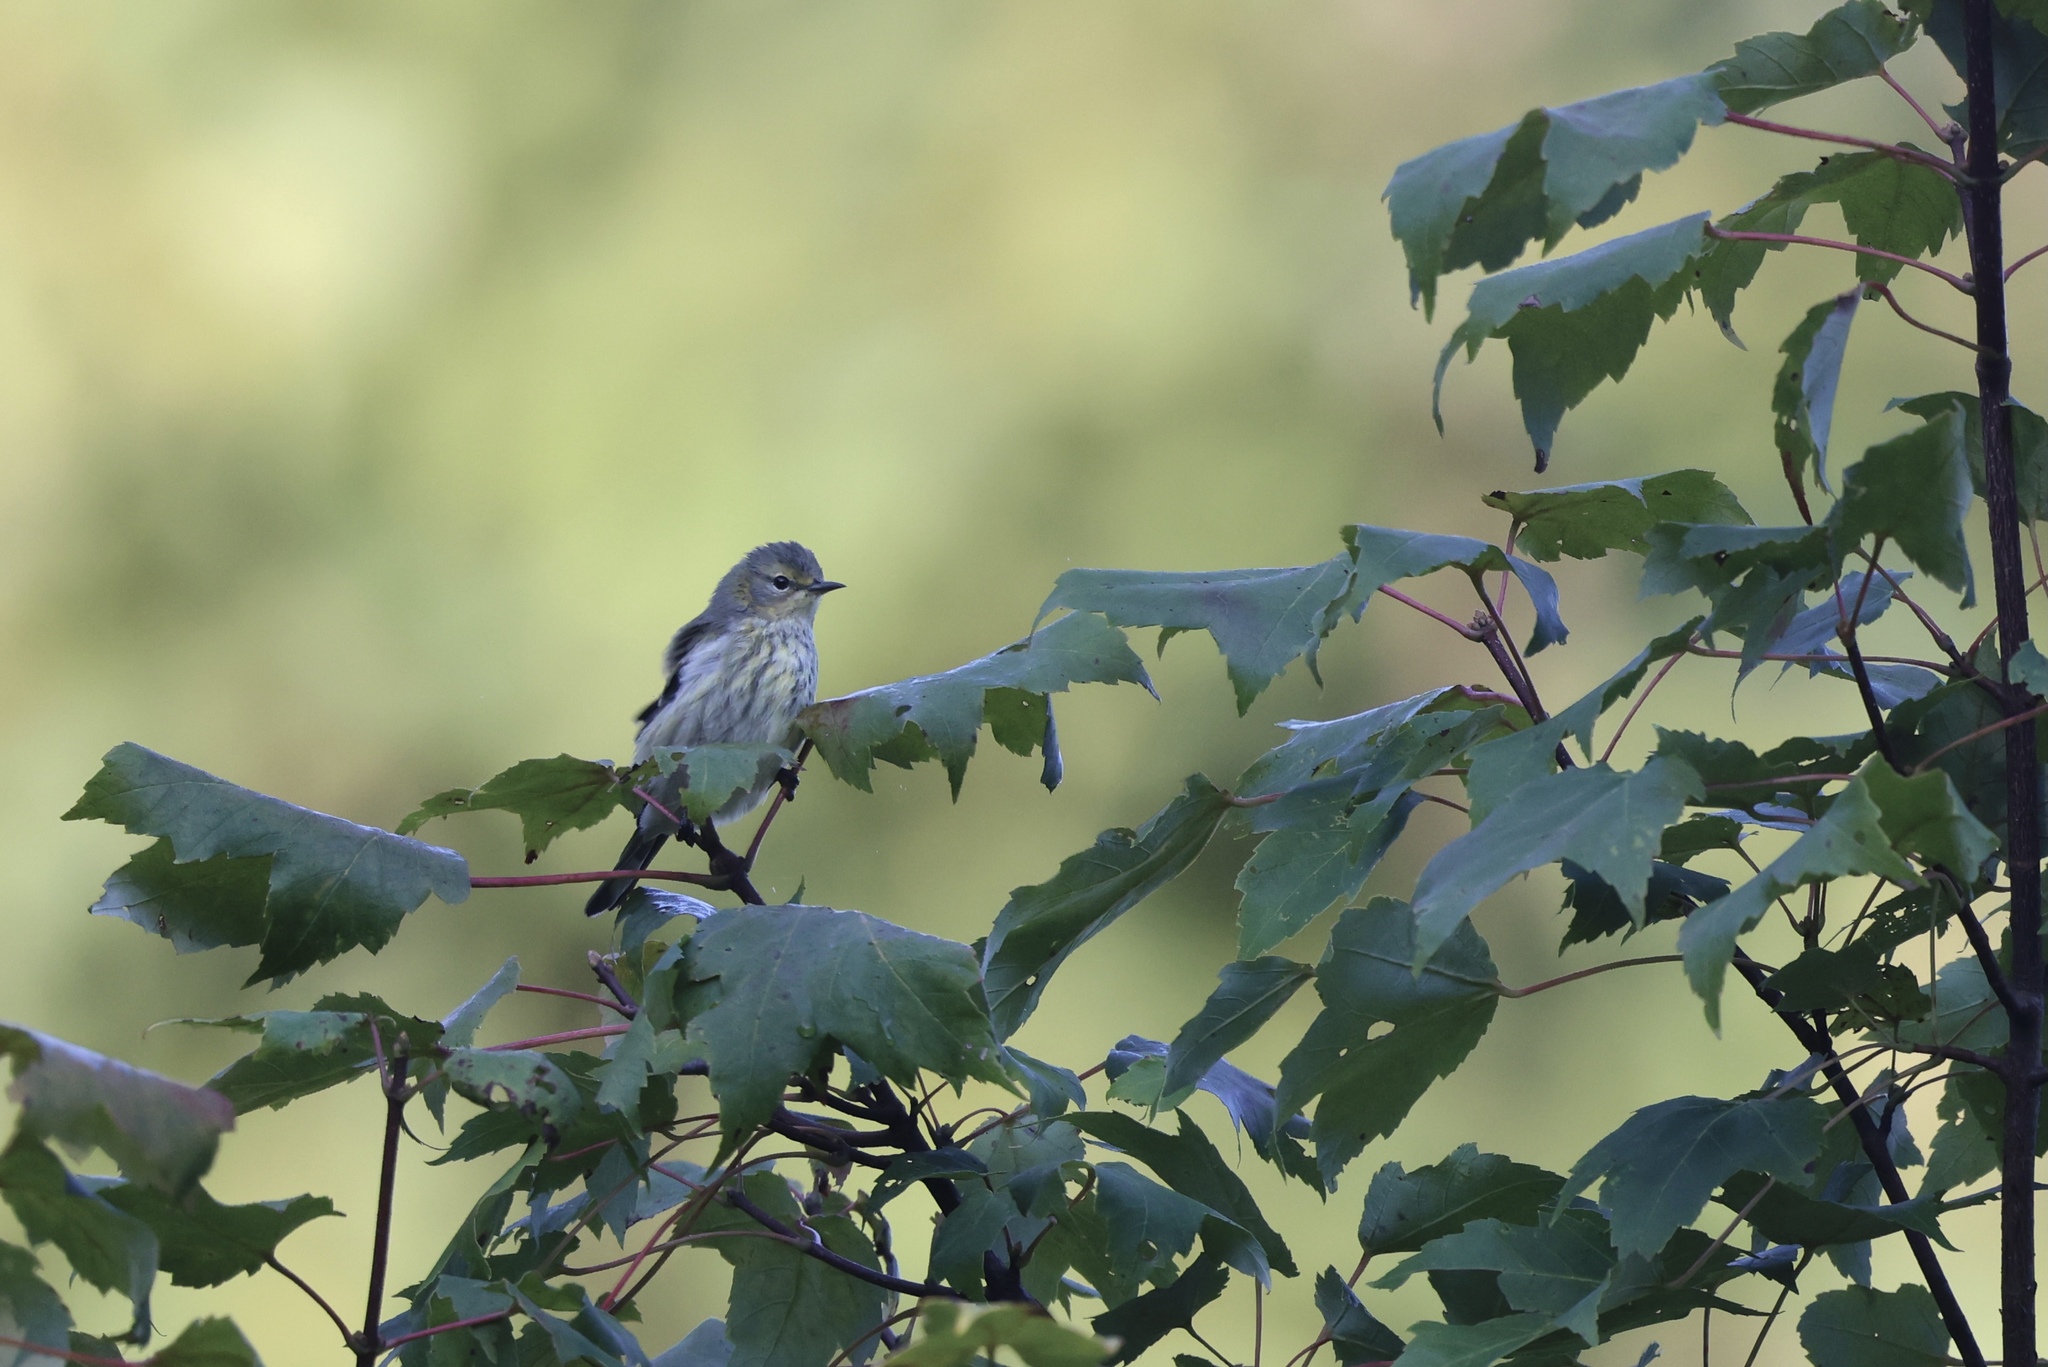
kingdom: Animalia
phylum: Chordata
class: Aves
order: Passeriformes
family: Parulidae
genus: Setophaga
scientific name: Setophaga tigrina
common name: Cape may warbler
